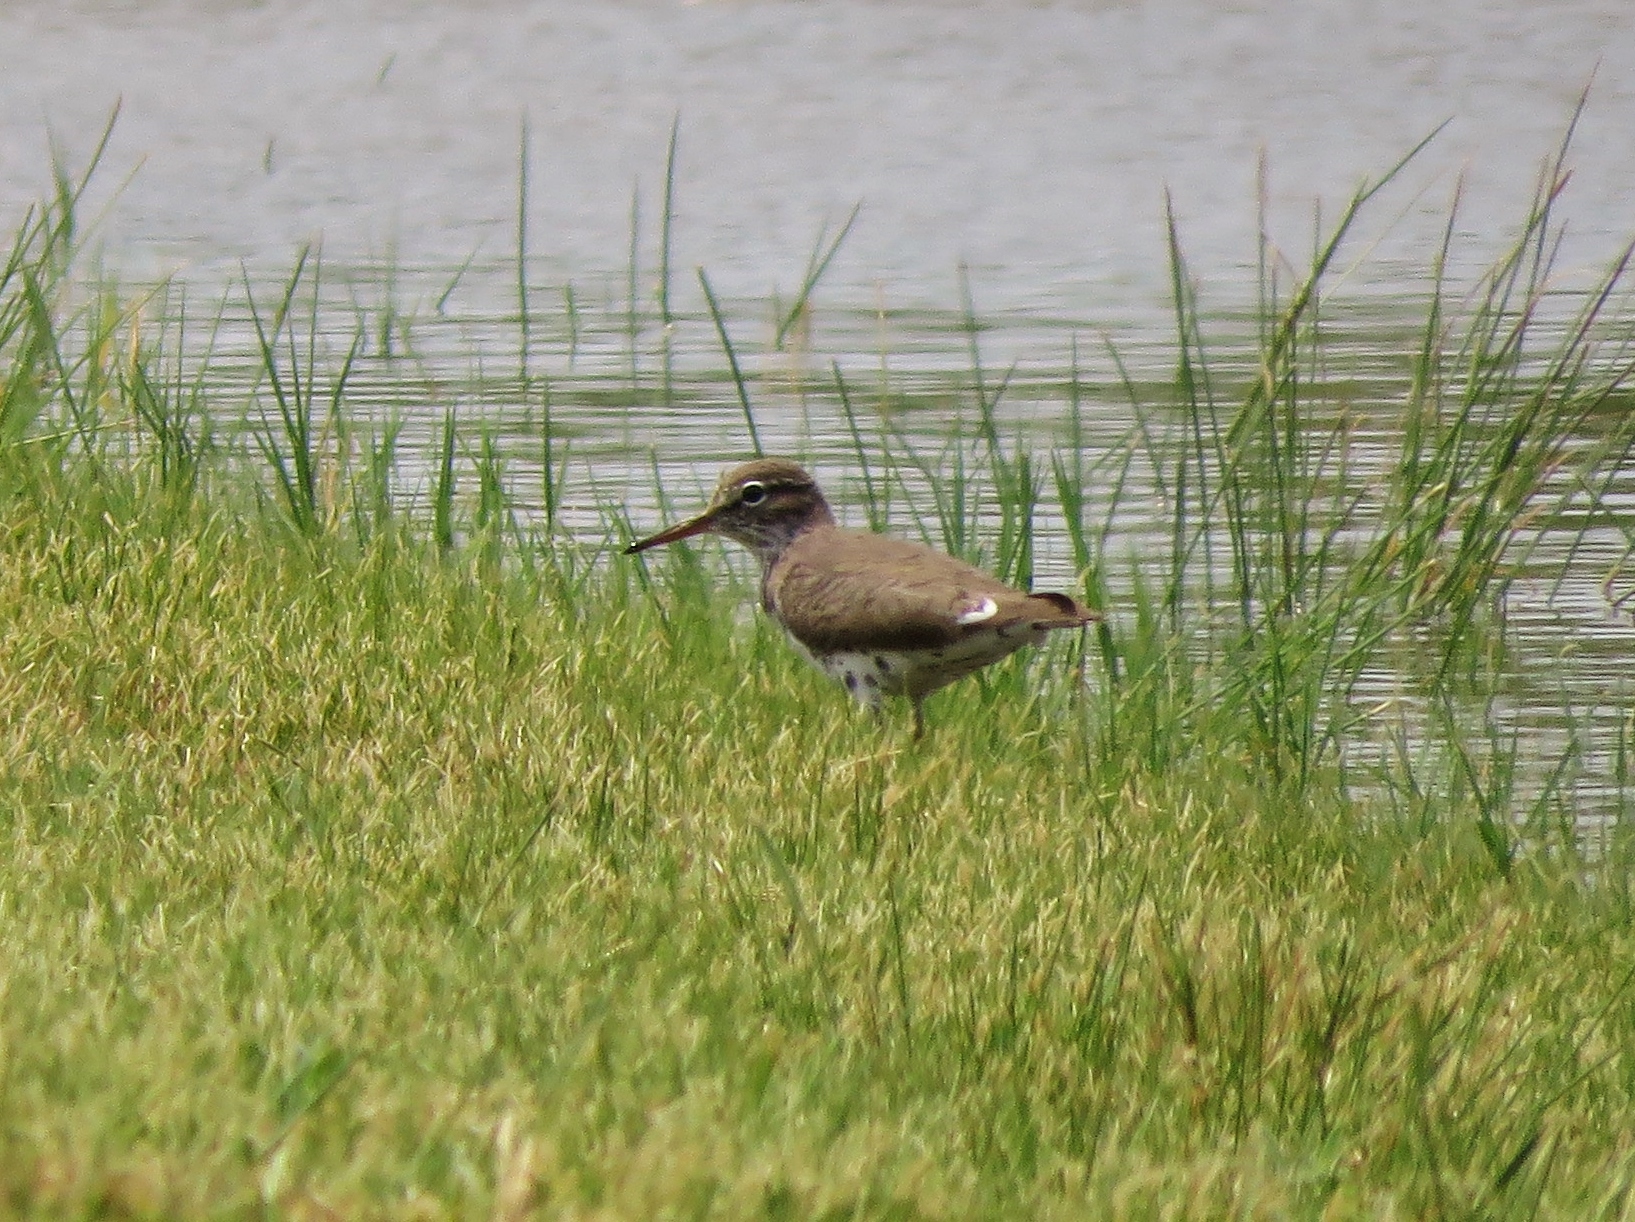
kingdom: Animalia
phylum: Chordata
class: Aves
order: Charadriiformes
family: Scolopacidae
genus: Actitis
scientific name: Actitis macularius
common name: Spotted sandpiper
